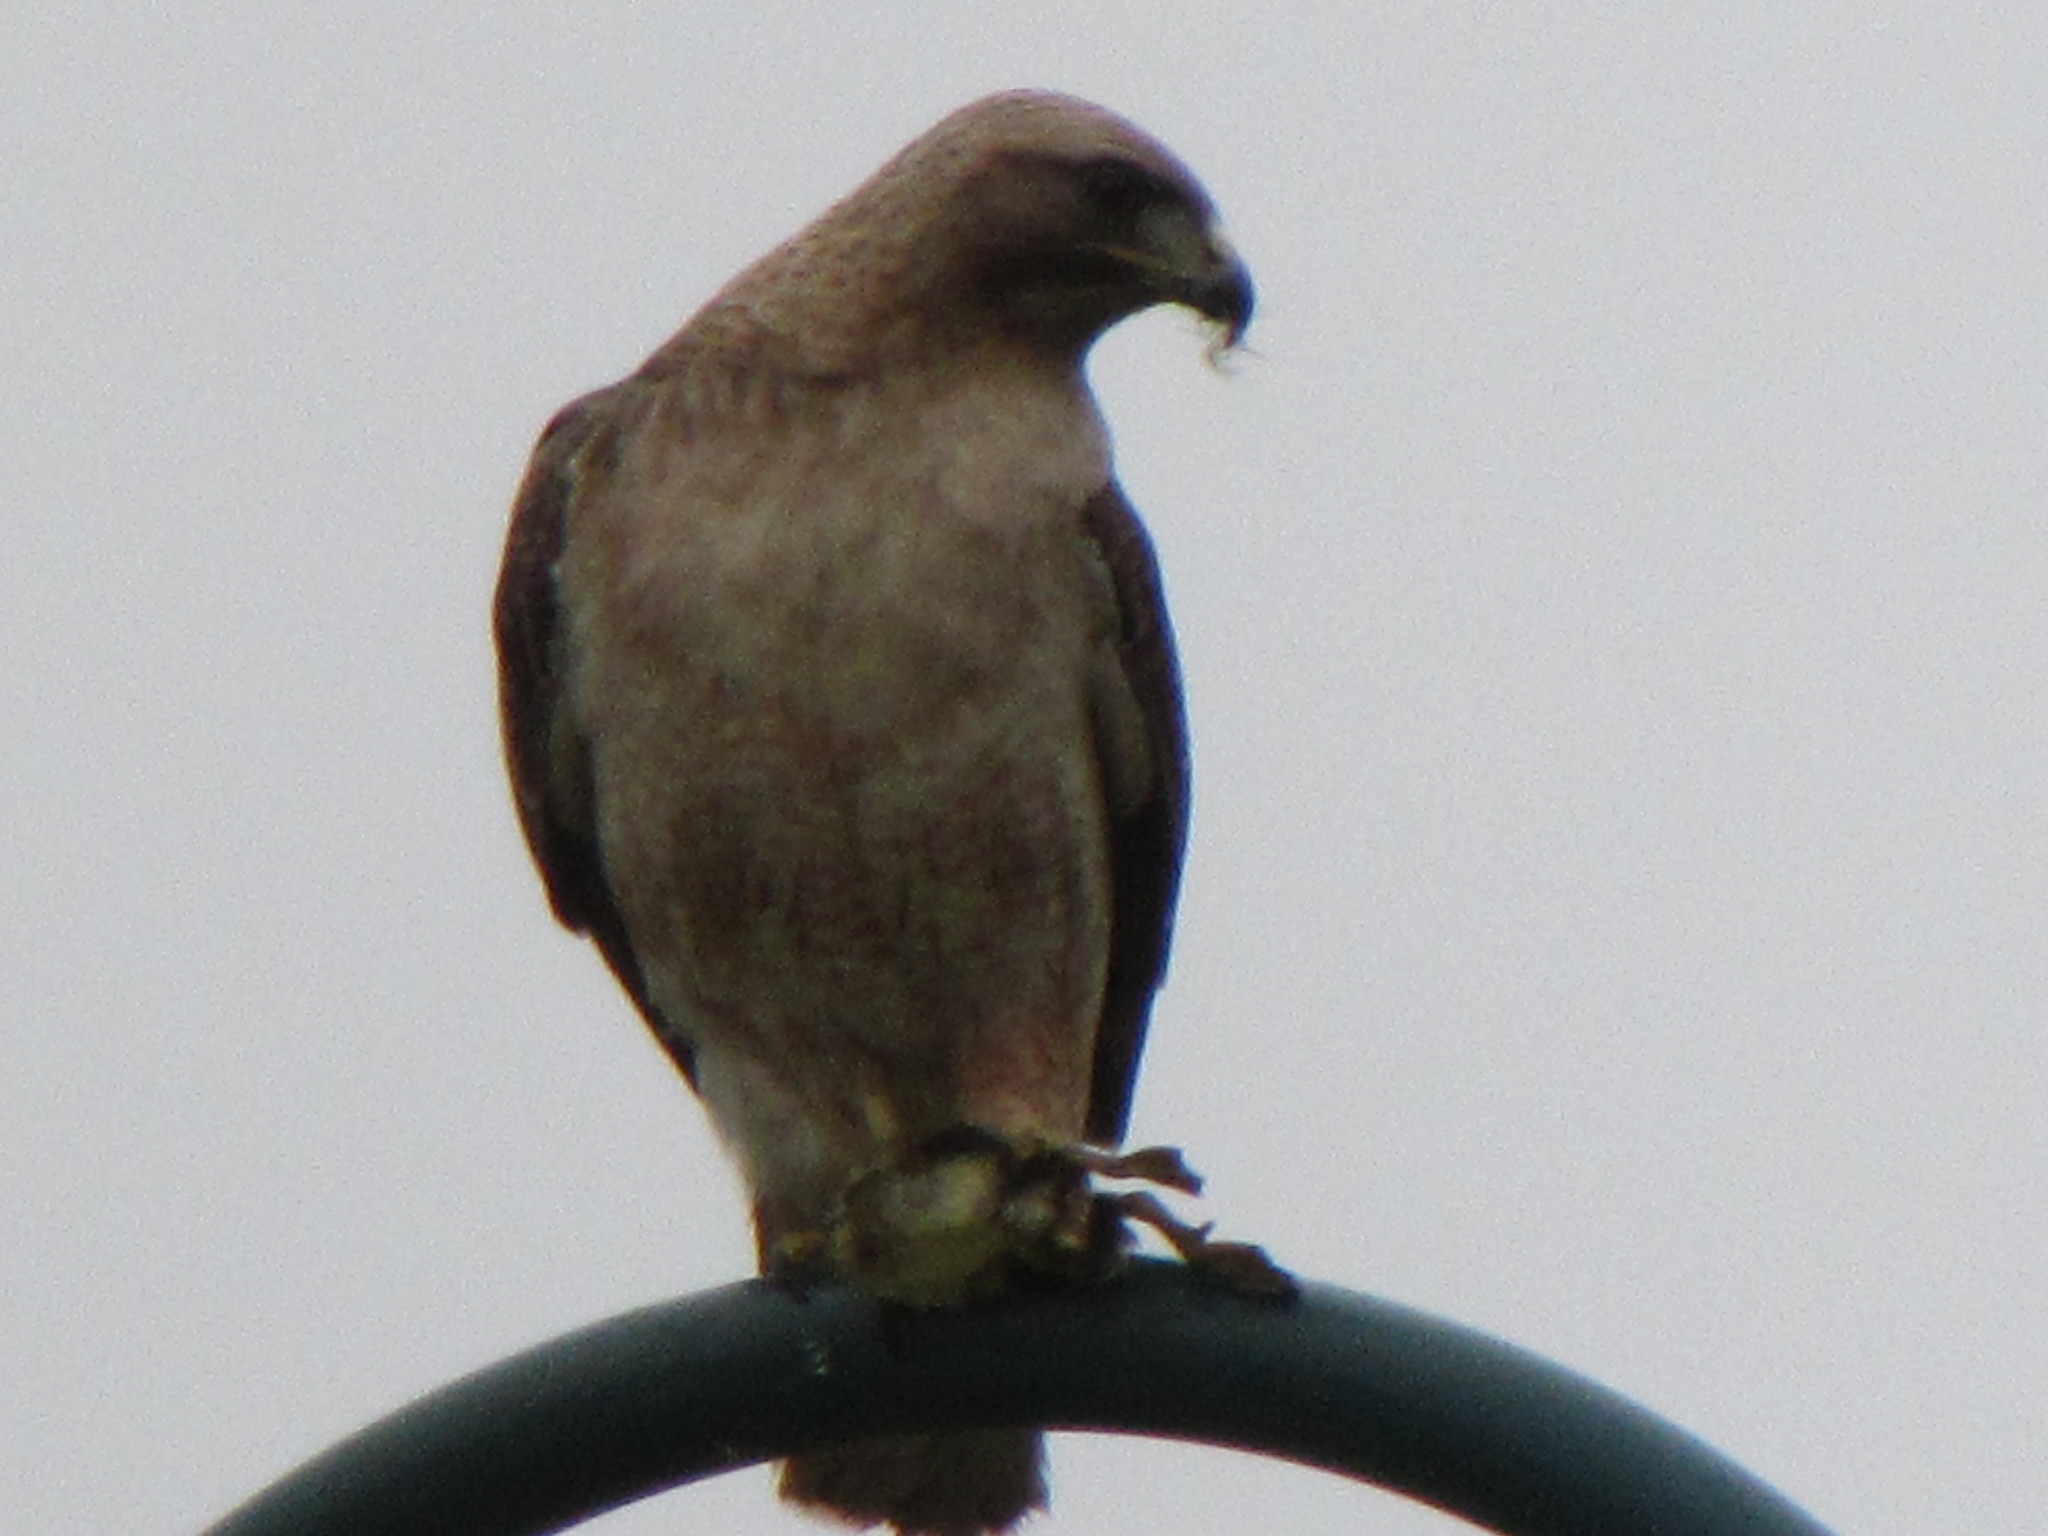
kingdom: Animalia
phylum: Chordata
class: Aves
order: Accipitriformes
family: Accipitridae
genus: Buteo
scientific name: Buteo jamaicensis
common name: Red-tailed hawk
